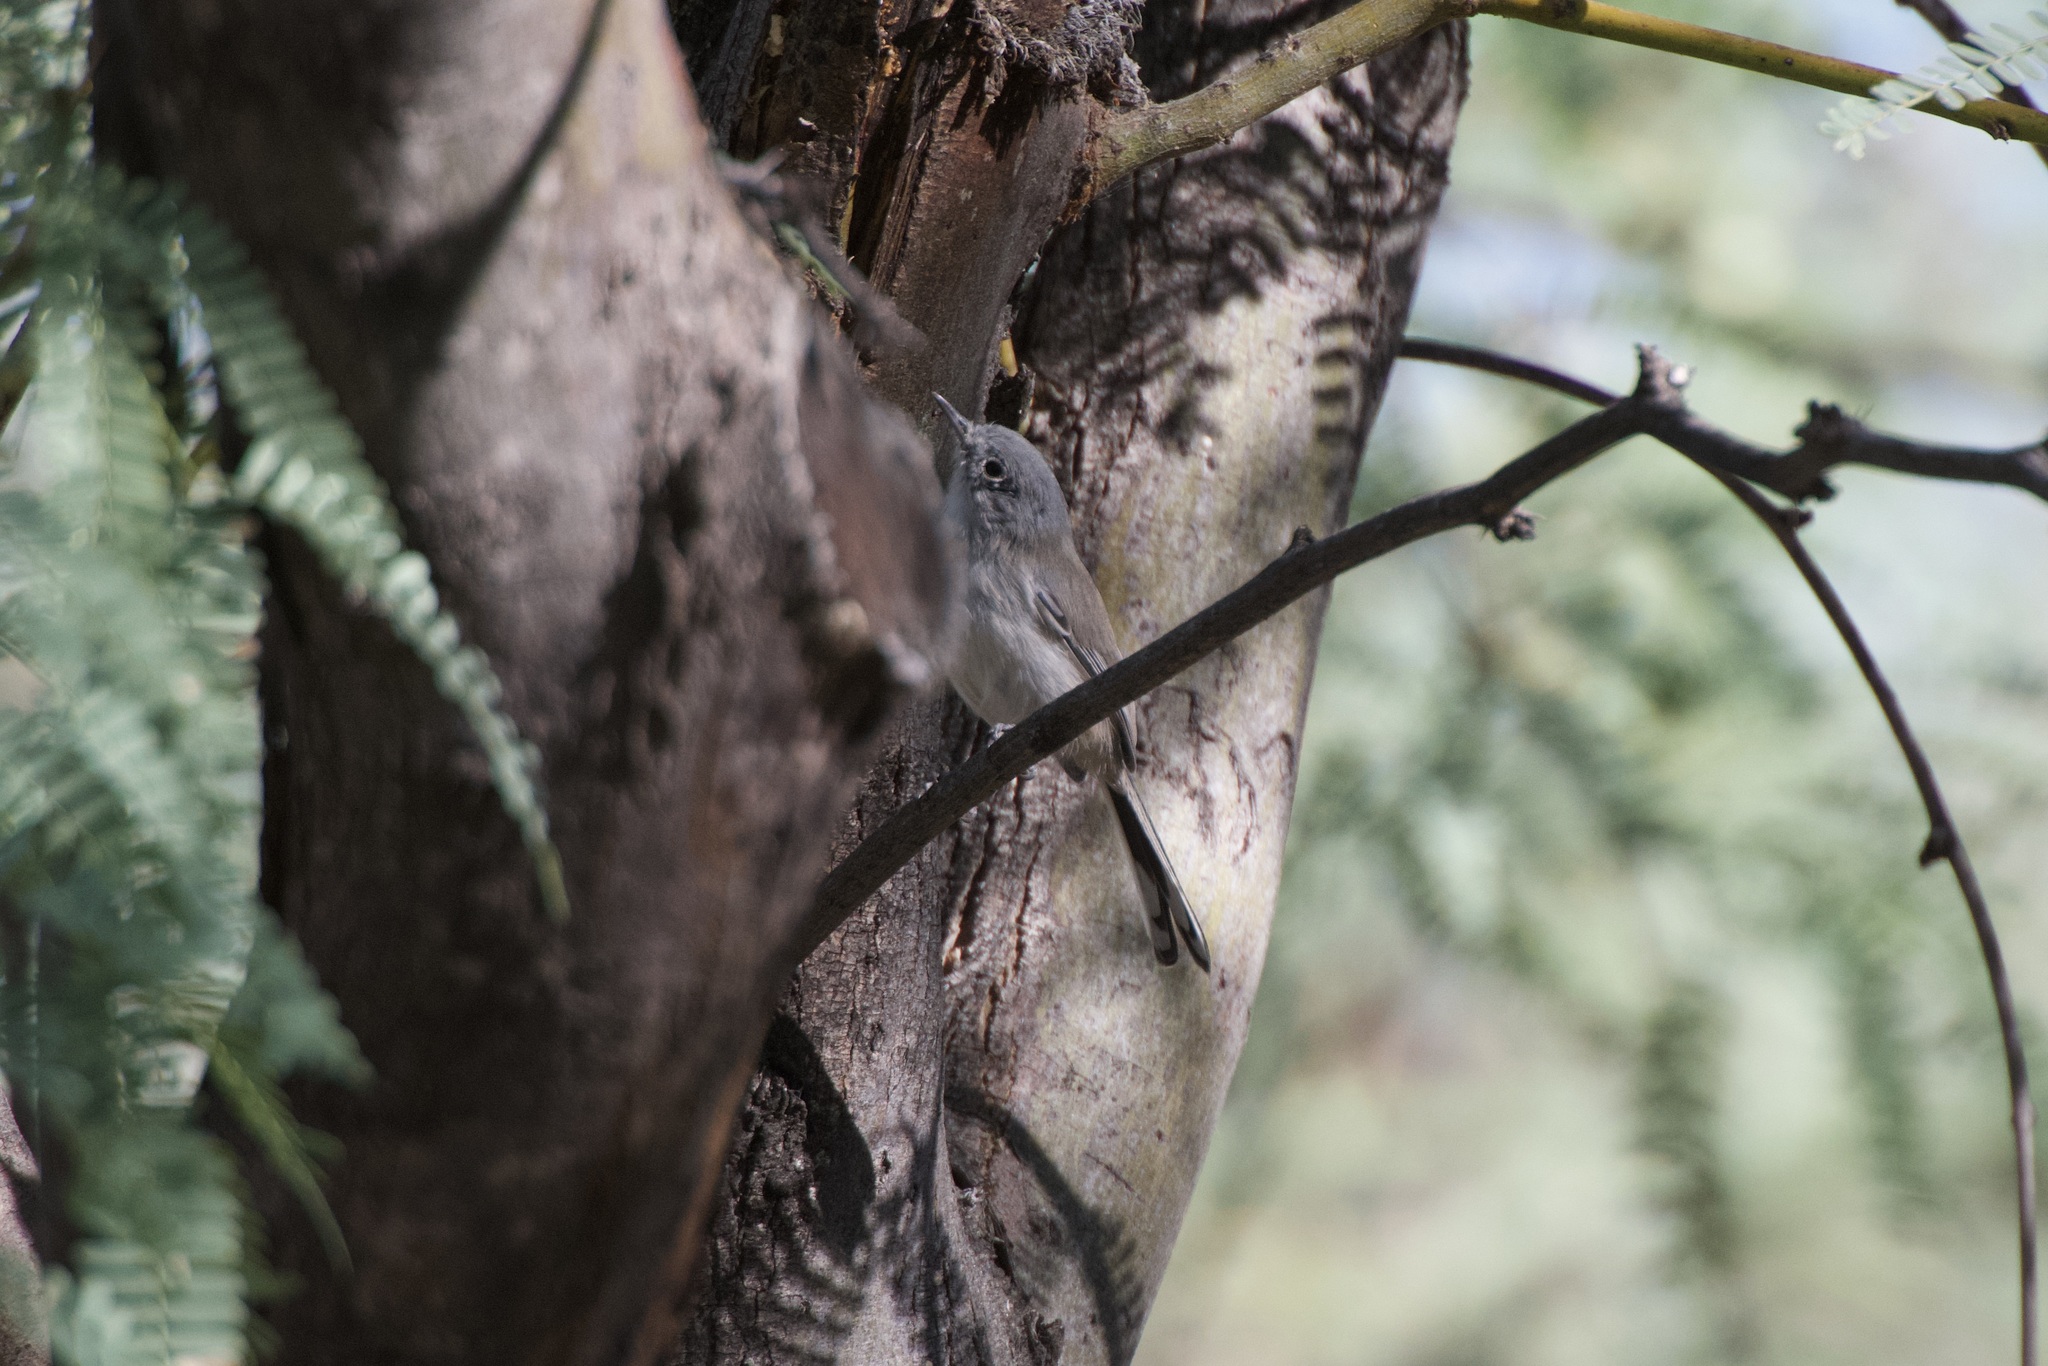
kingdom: Animalia
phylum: Chordata
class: Aves
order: Passeriformes
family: Polioptilidae
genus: Polioptila
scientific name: Polioptila melanura
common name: Black-tailed gnatcatcher
